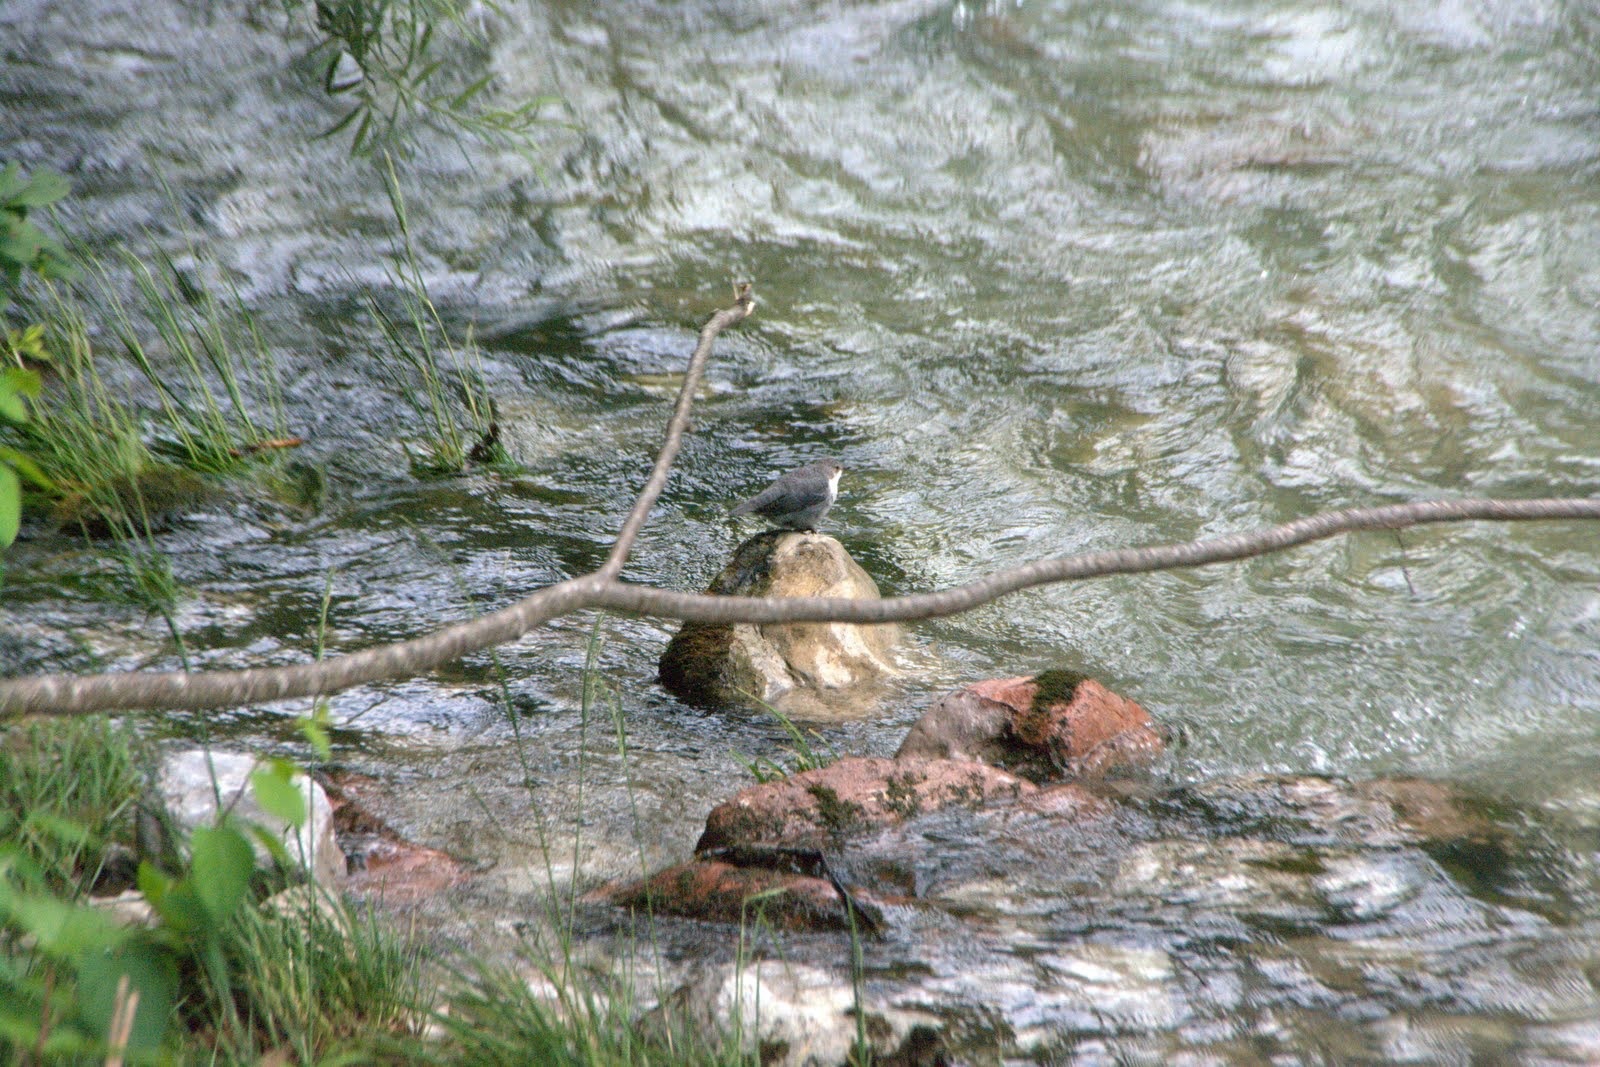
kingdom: Animalia
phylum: Chordata
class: Aves
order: Passeriformes
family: Cinclidae
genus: Cinclus
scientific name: Cinclus cinclus
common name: White-throated dipper
